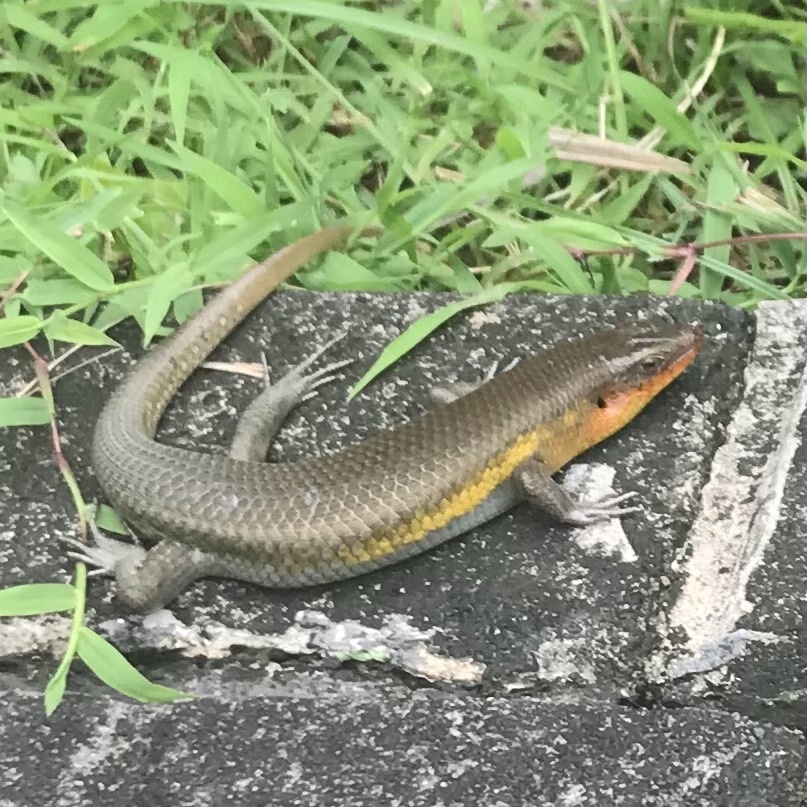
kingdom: Animalia
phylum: Chordata
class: Squamata
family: Scincidae
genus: Eutropis
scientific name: Eutropis multifasciata
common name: Common mabuya
